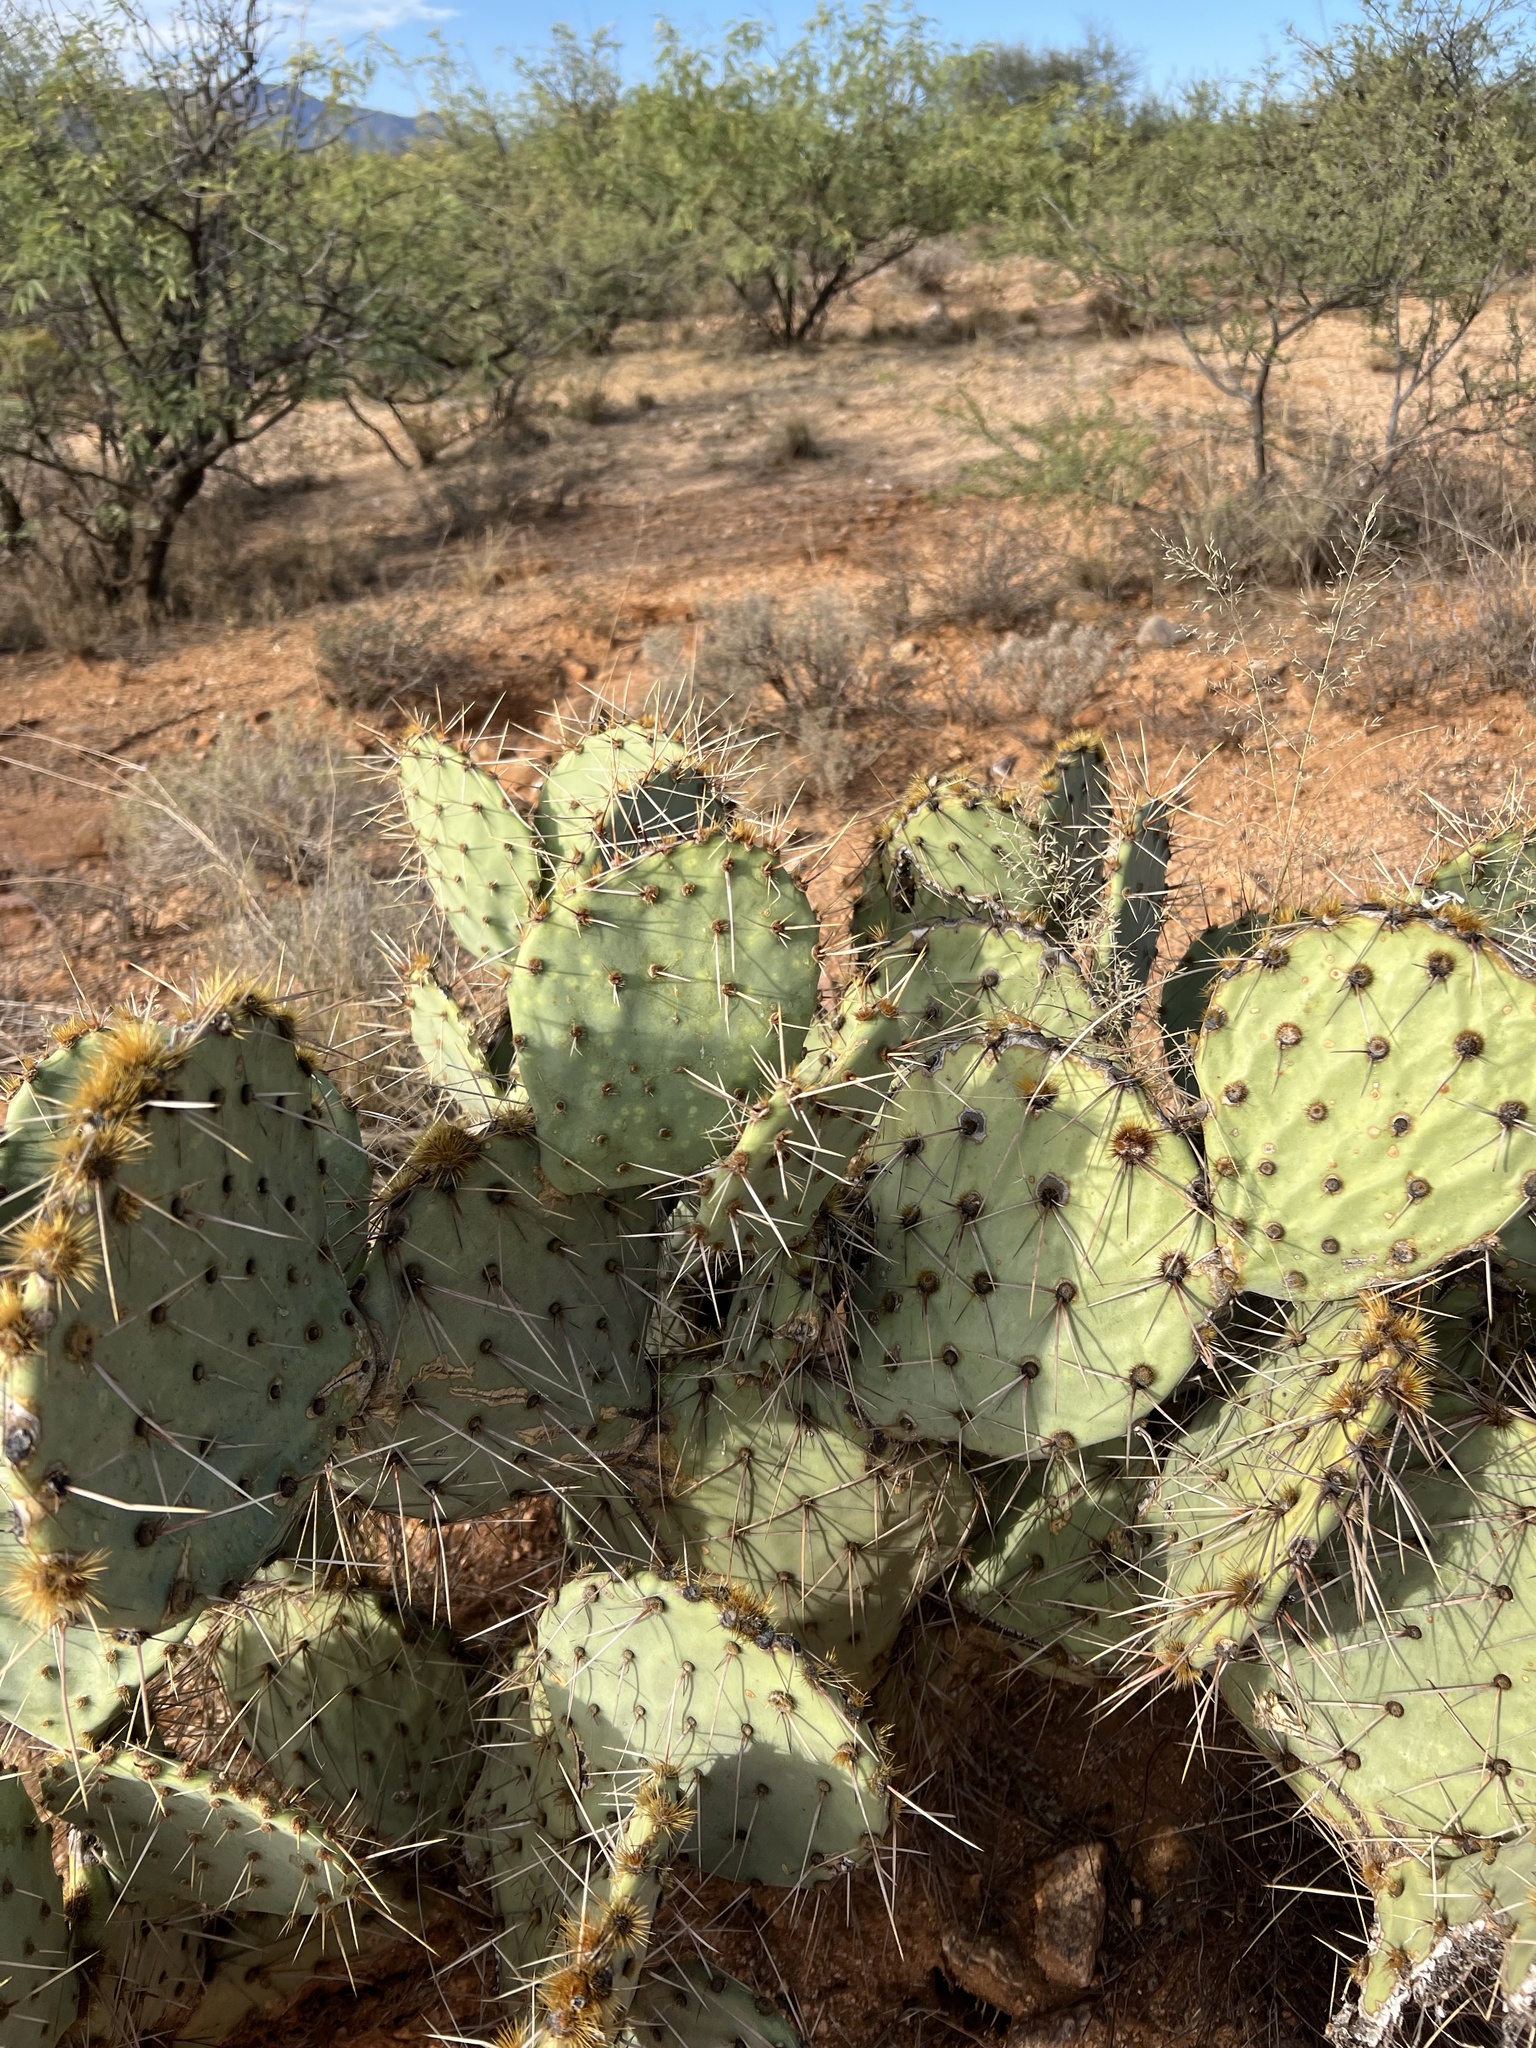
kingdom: Plantae
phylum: Tracheophyta
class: Magnoliopsida
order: Caryophyllales
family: Cactaceae
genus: Opuntia
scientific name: Opuntia engelmannii
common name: Cactus-apple
